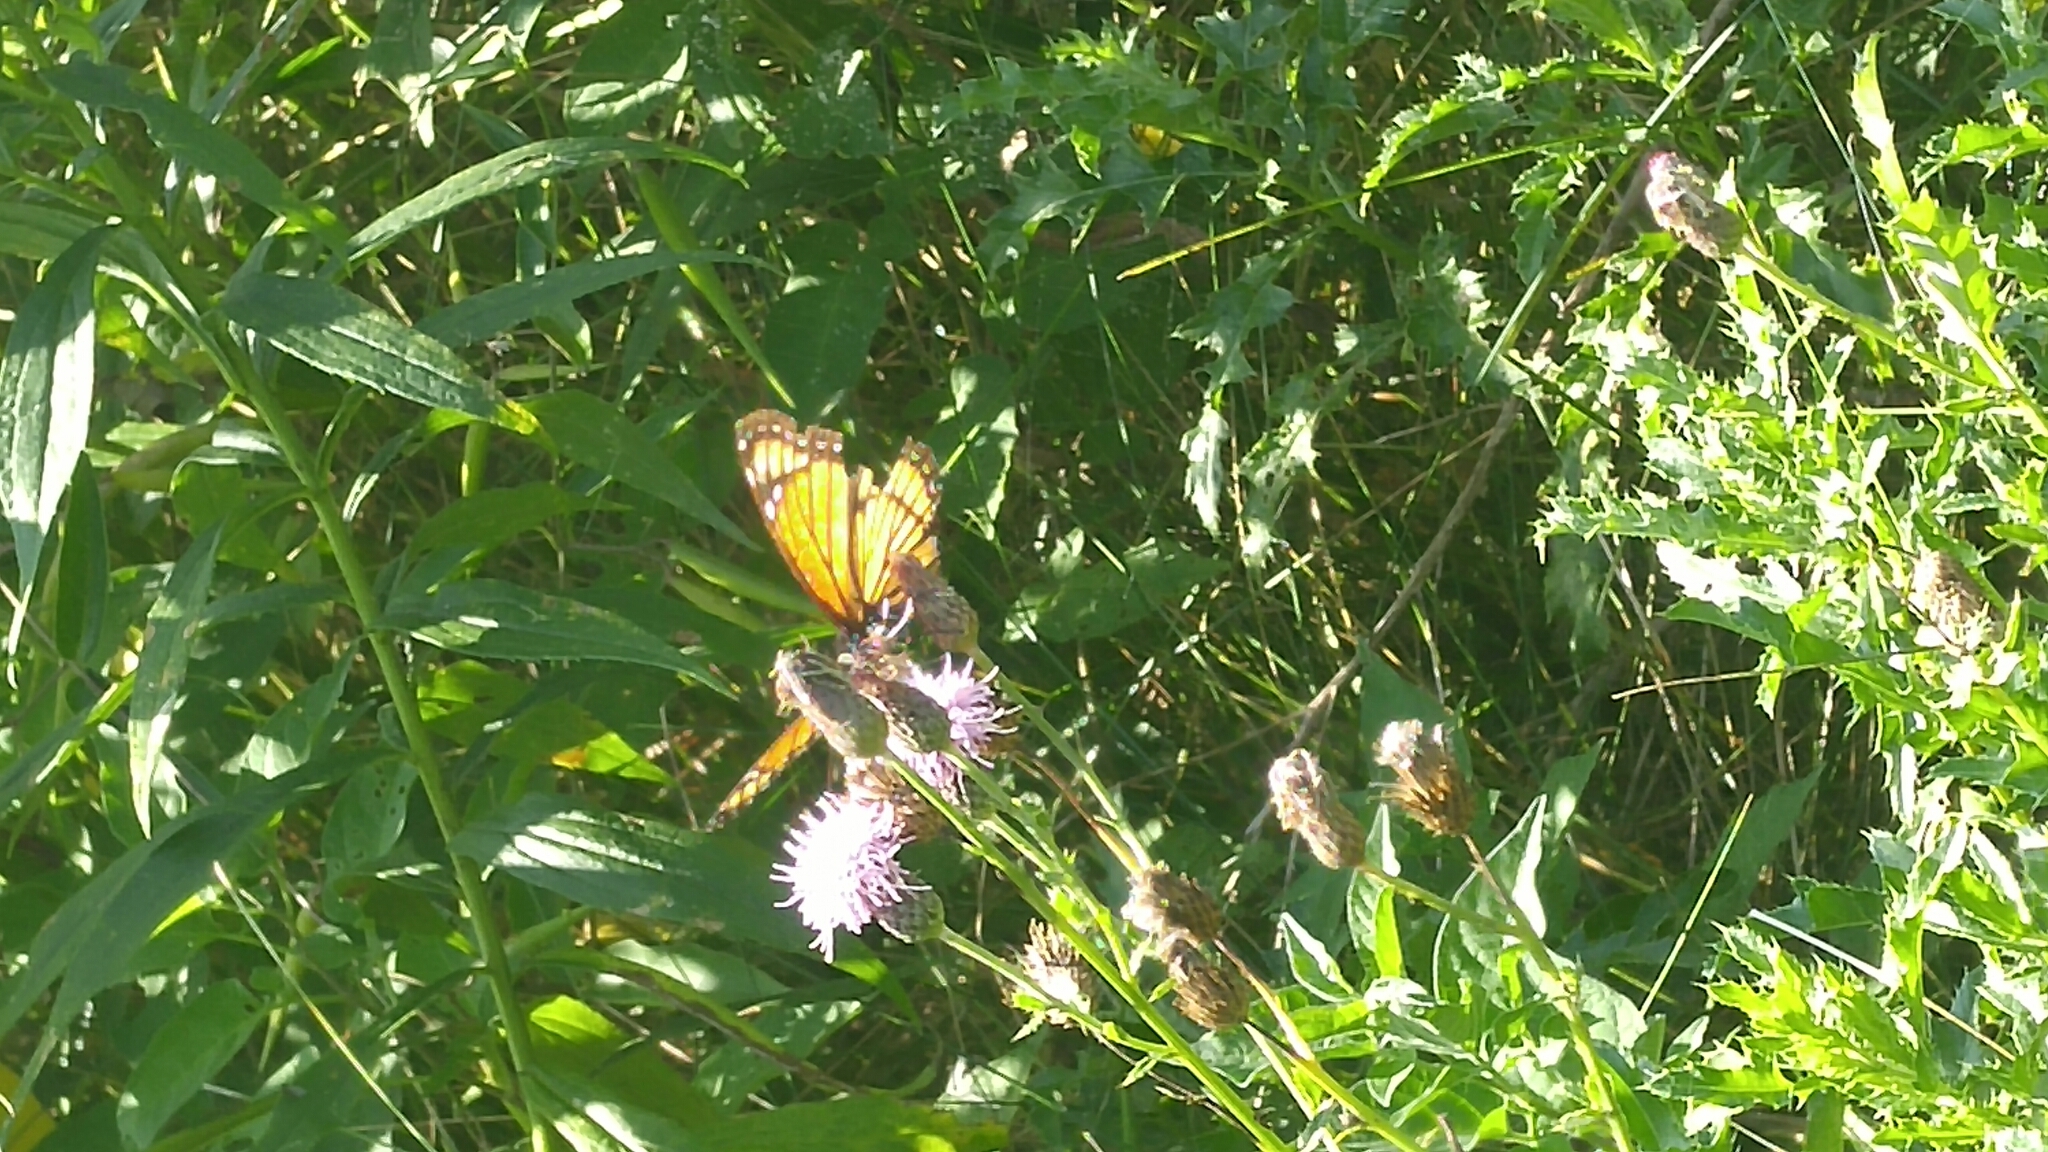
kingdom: Animalia
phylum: Arthropoda
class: Insecta
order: Lepidoptera
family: Nymphalidae
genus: Limenitis
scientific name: Limenitis archippus
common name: Viceroy
